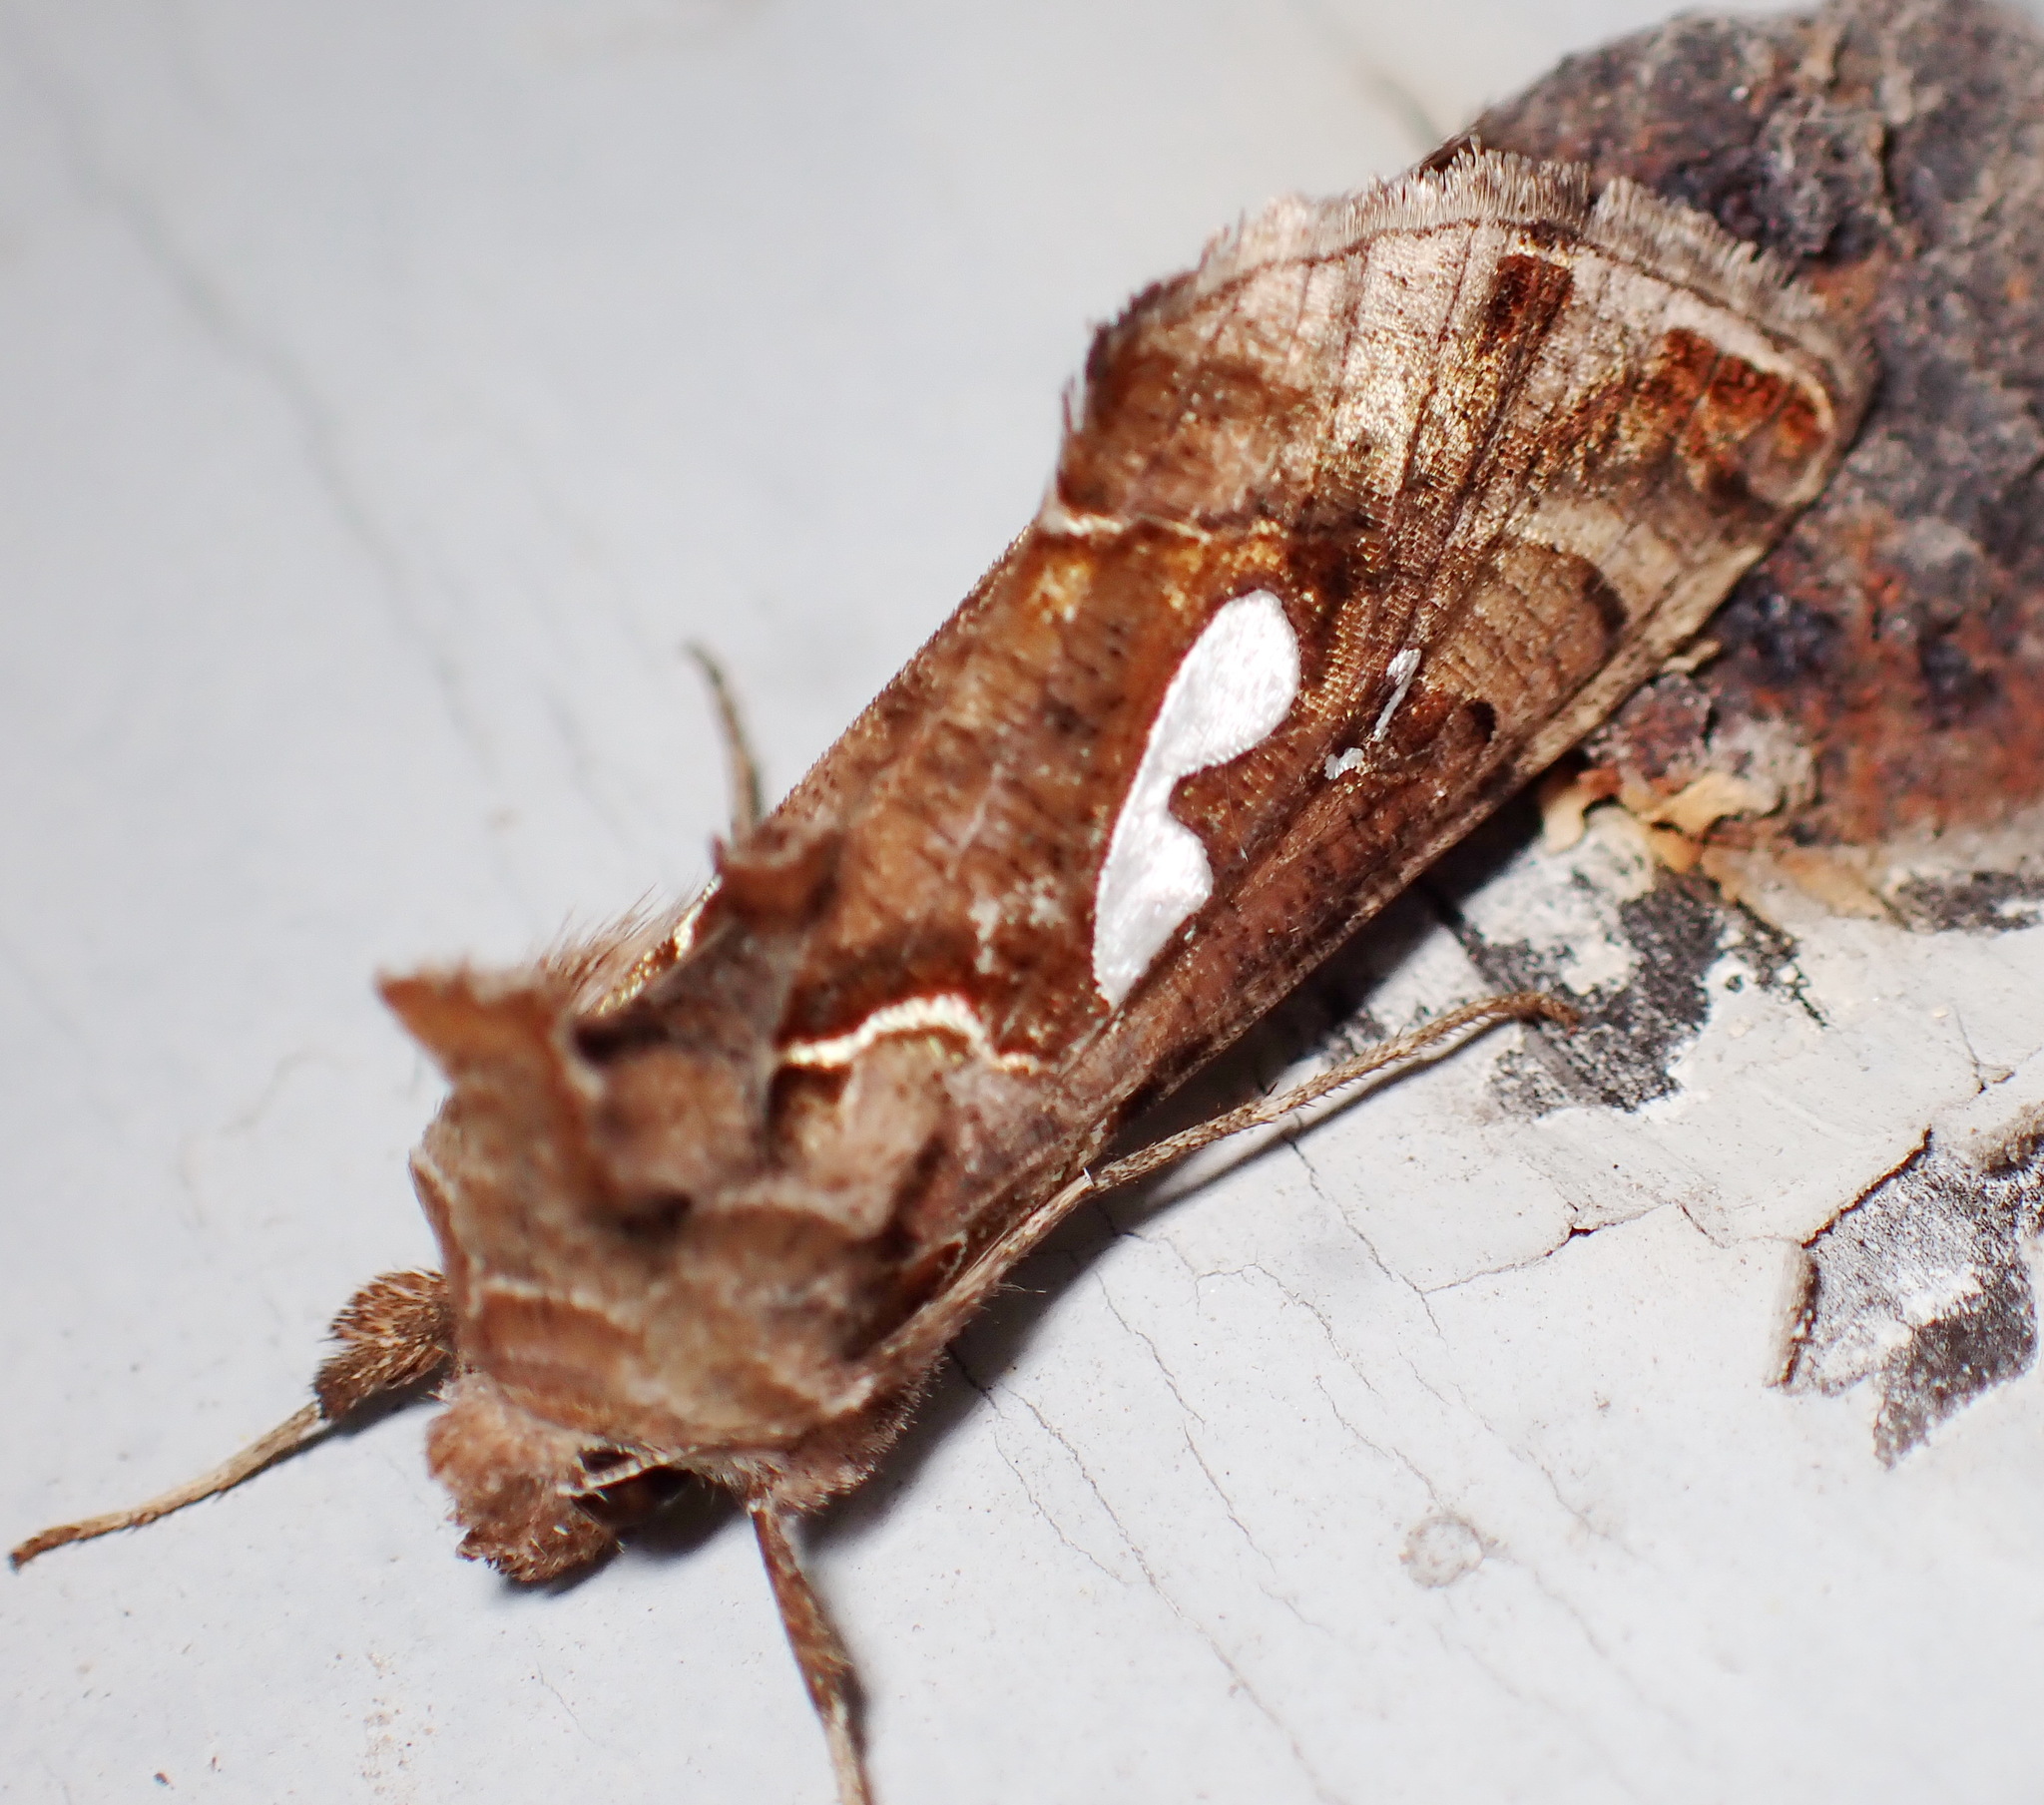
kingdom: Animalia
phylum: Arthropoda
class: Insecta
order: Lepidoptera
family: Noctuidae
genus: Megalographa
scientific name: Megalographa biloba
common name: Cutworm
